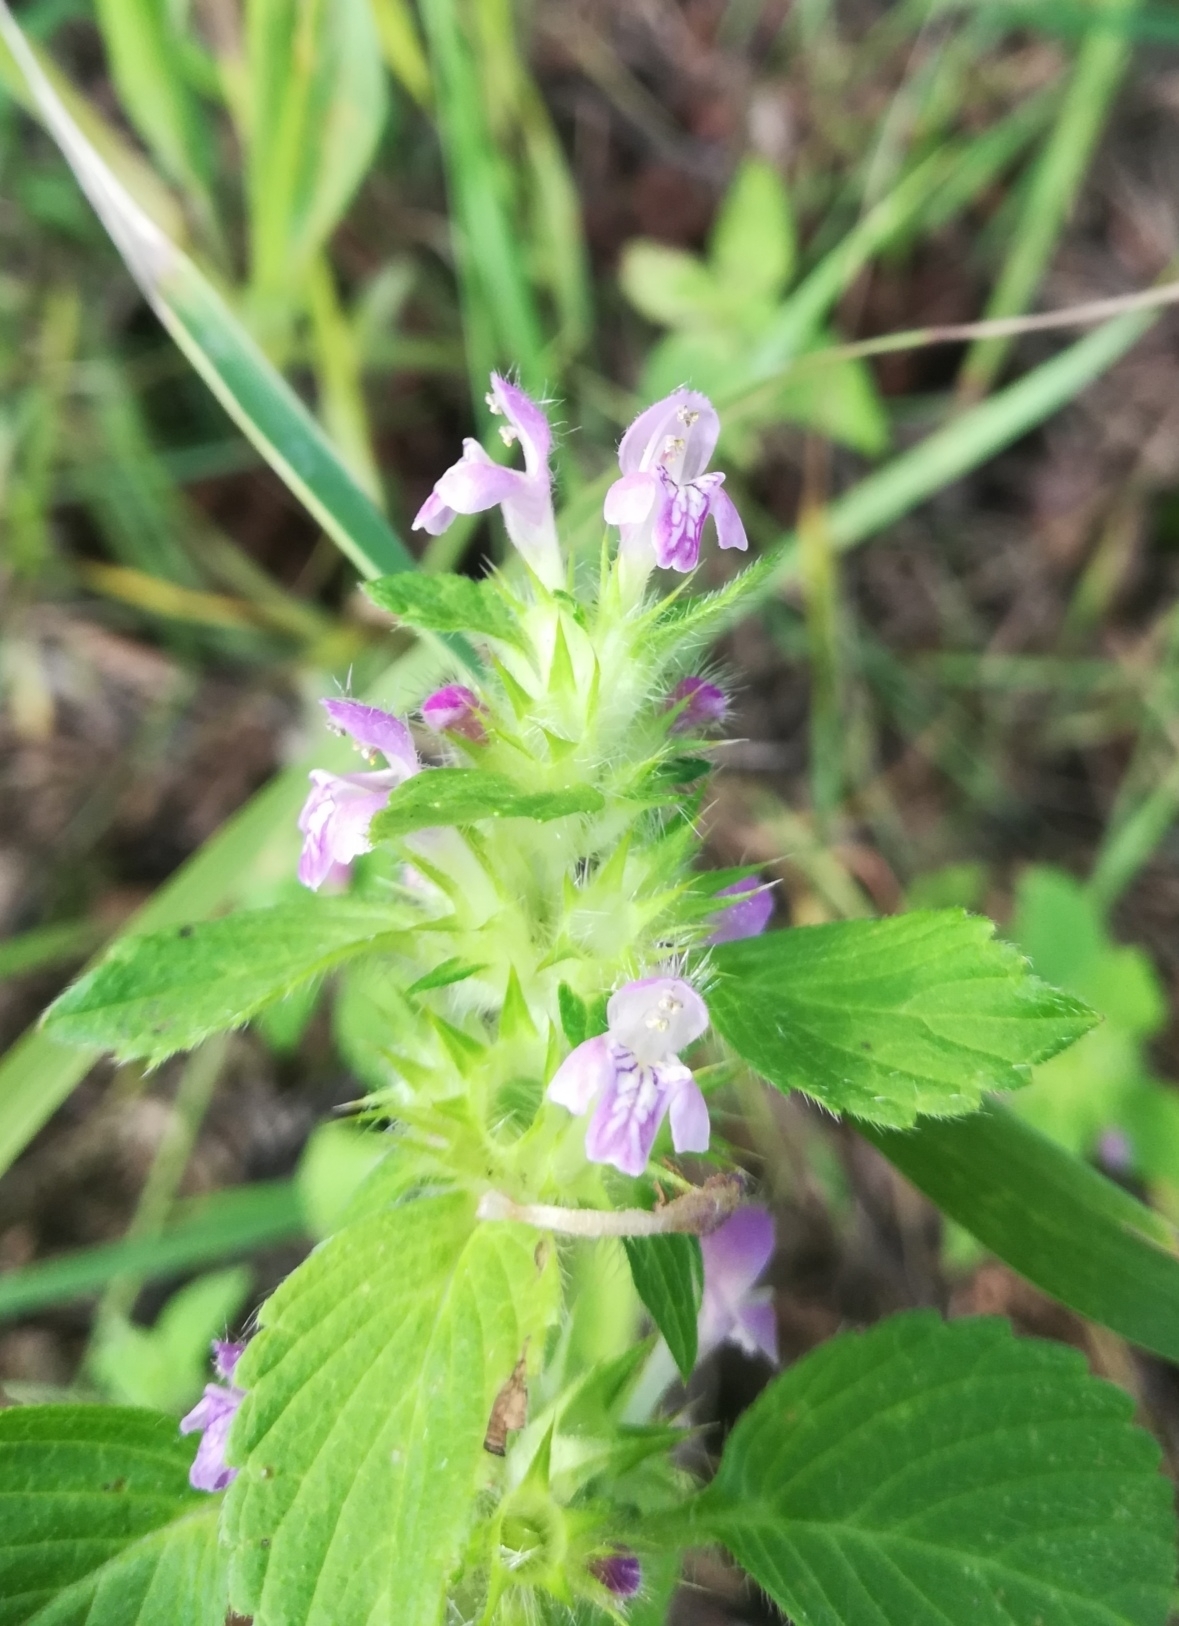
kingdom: Plantae
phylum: Tracheophyta
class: Magnoliopsida
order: Lamiales
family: Lamiaceae
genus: Galeopsis
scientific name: Galeopsis bifida
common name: Bifid hemp-nettle
